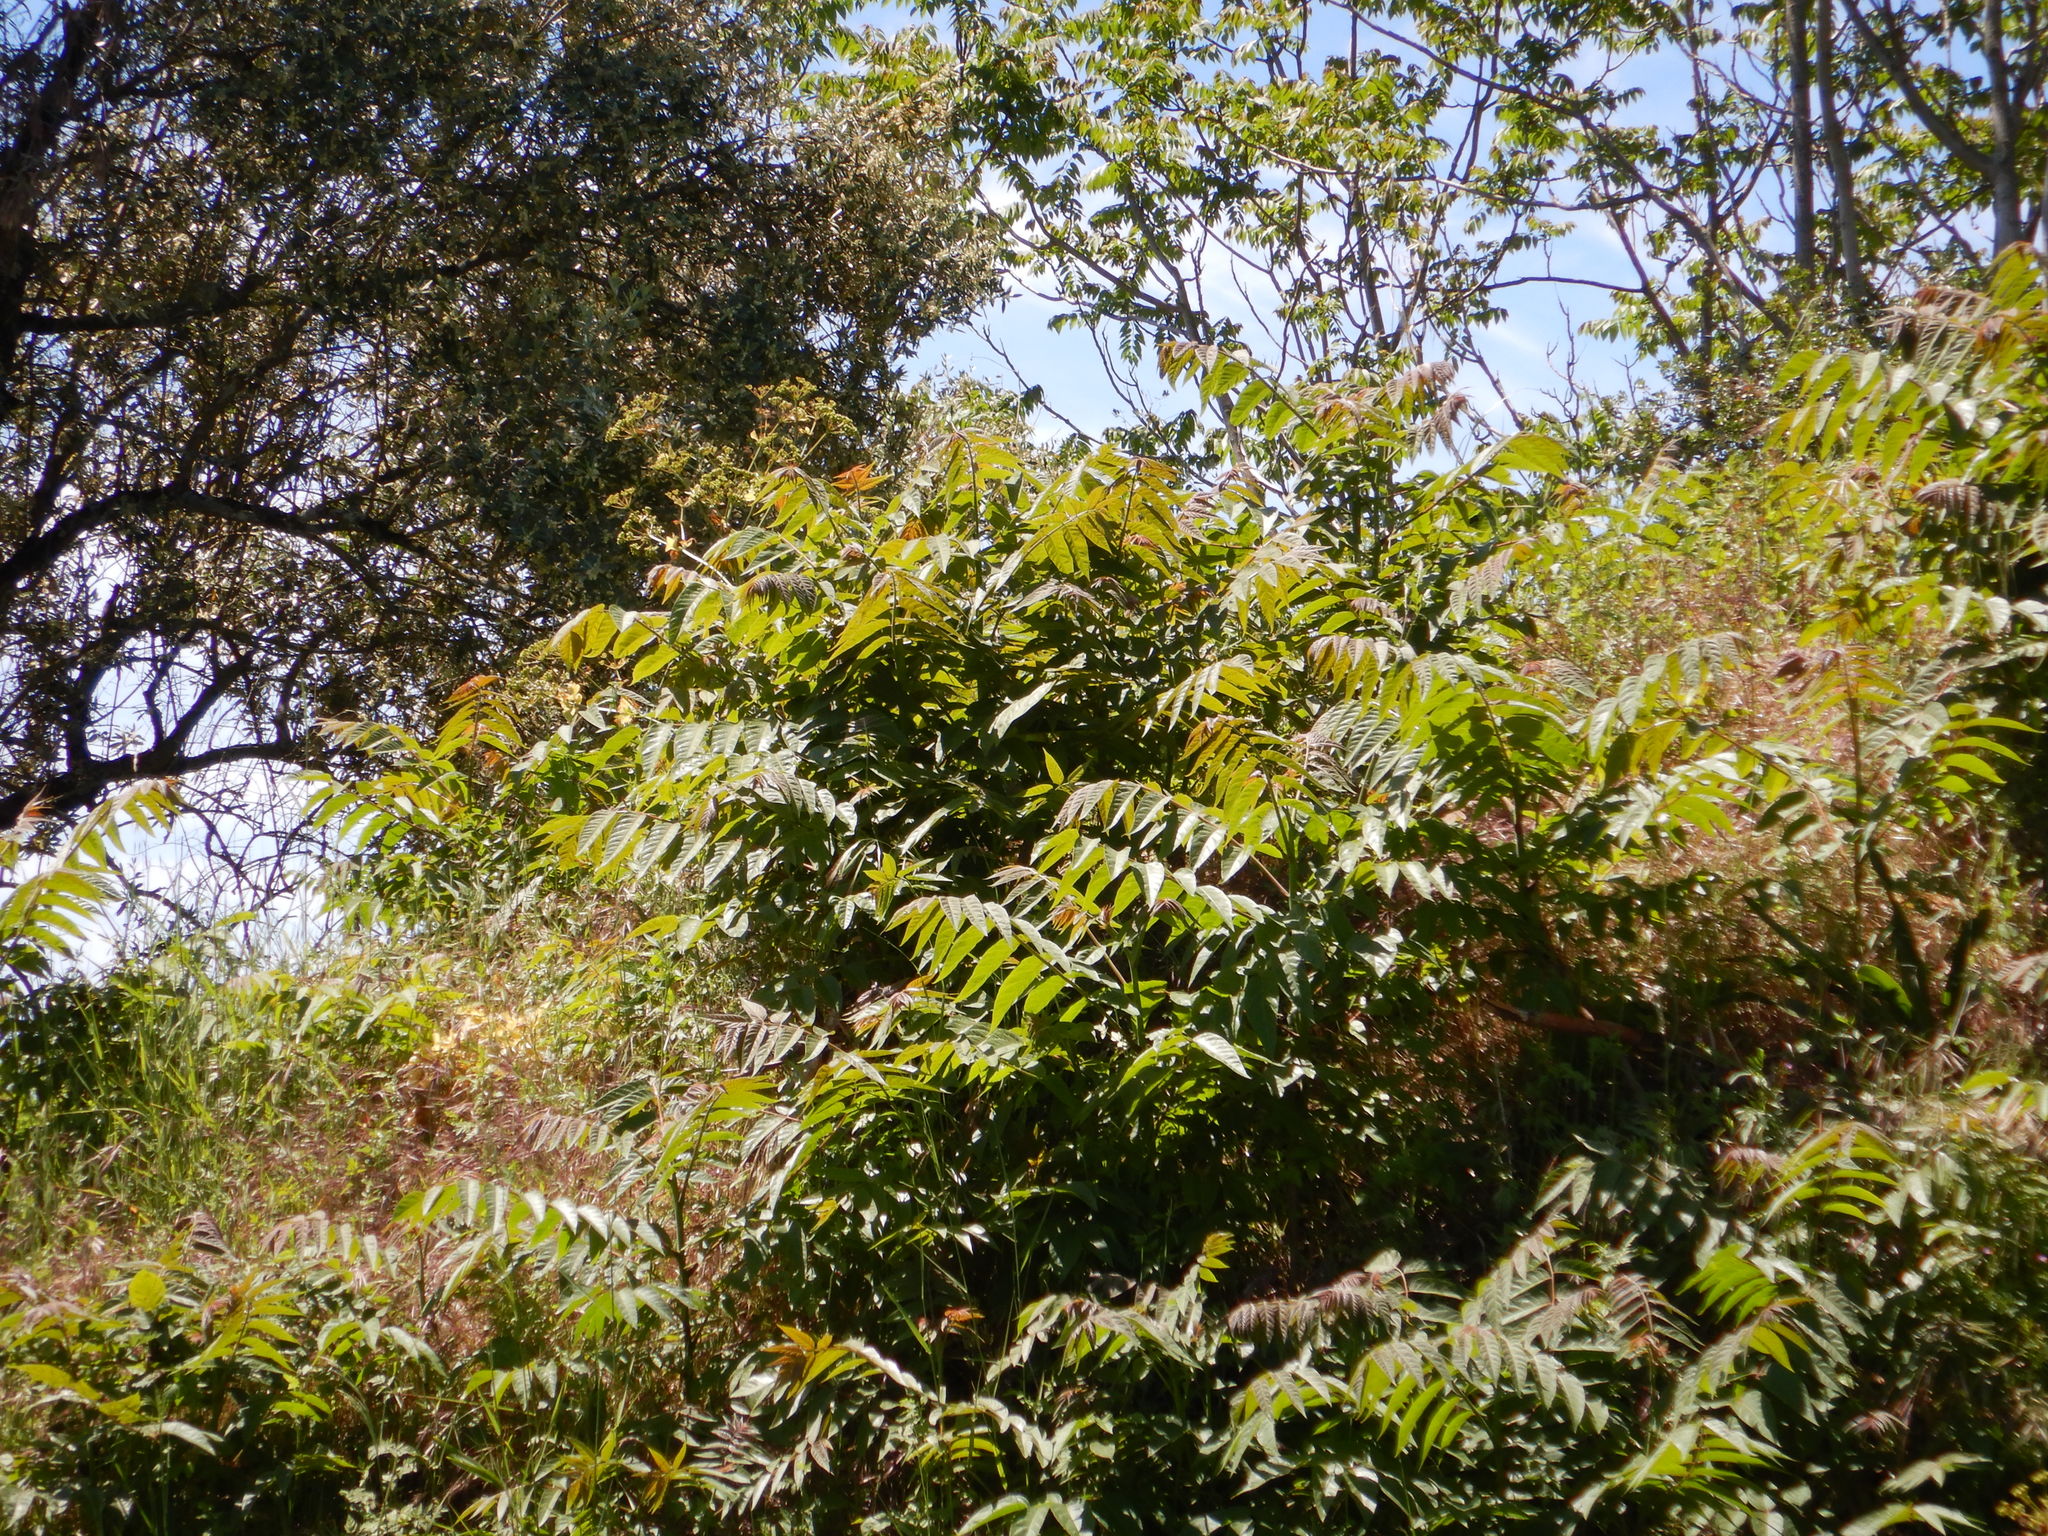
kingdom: Plantae
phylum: Tracheophyta
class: Magnoliopsida
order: Sapindales
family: Simaroubaceae
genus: Ailanthus
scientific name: Ailanthus altissima
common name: Tree-of-heaven
